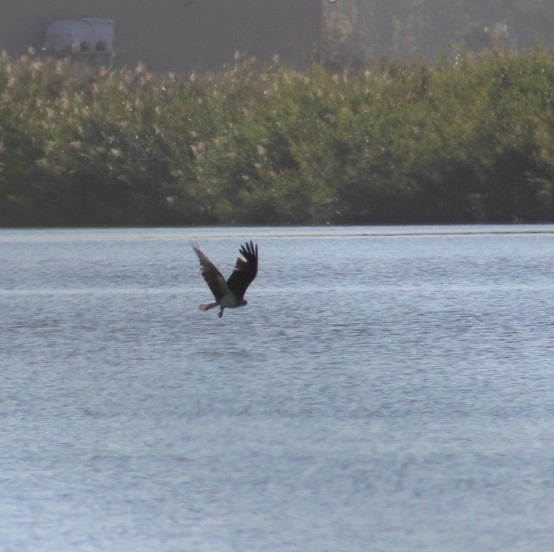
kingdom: Animalia
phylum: Chordata
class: Aves
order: Accipitriformes
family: Pandionidae
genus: Pandion
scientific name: Pandion haliaetus
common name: Osprey
